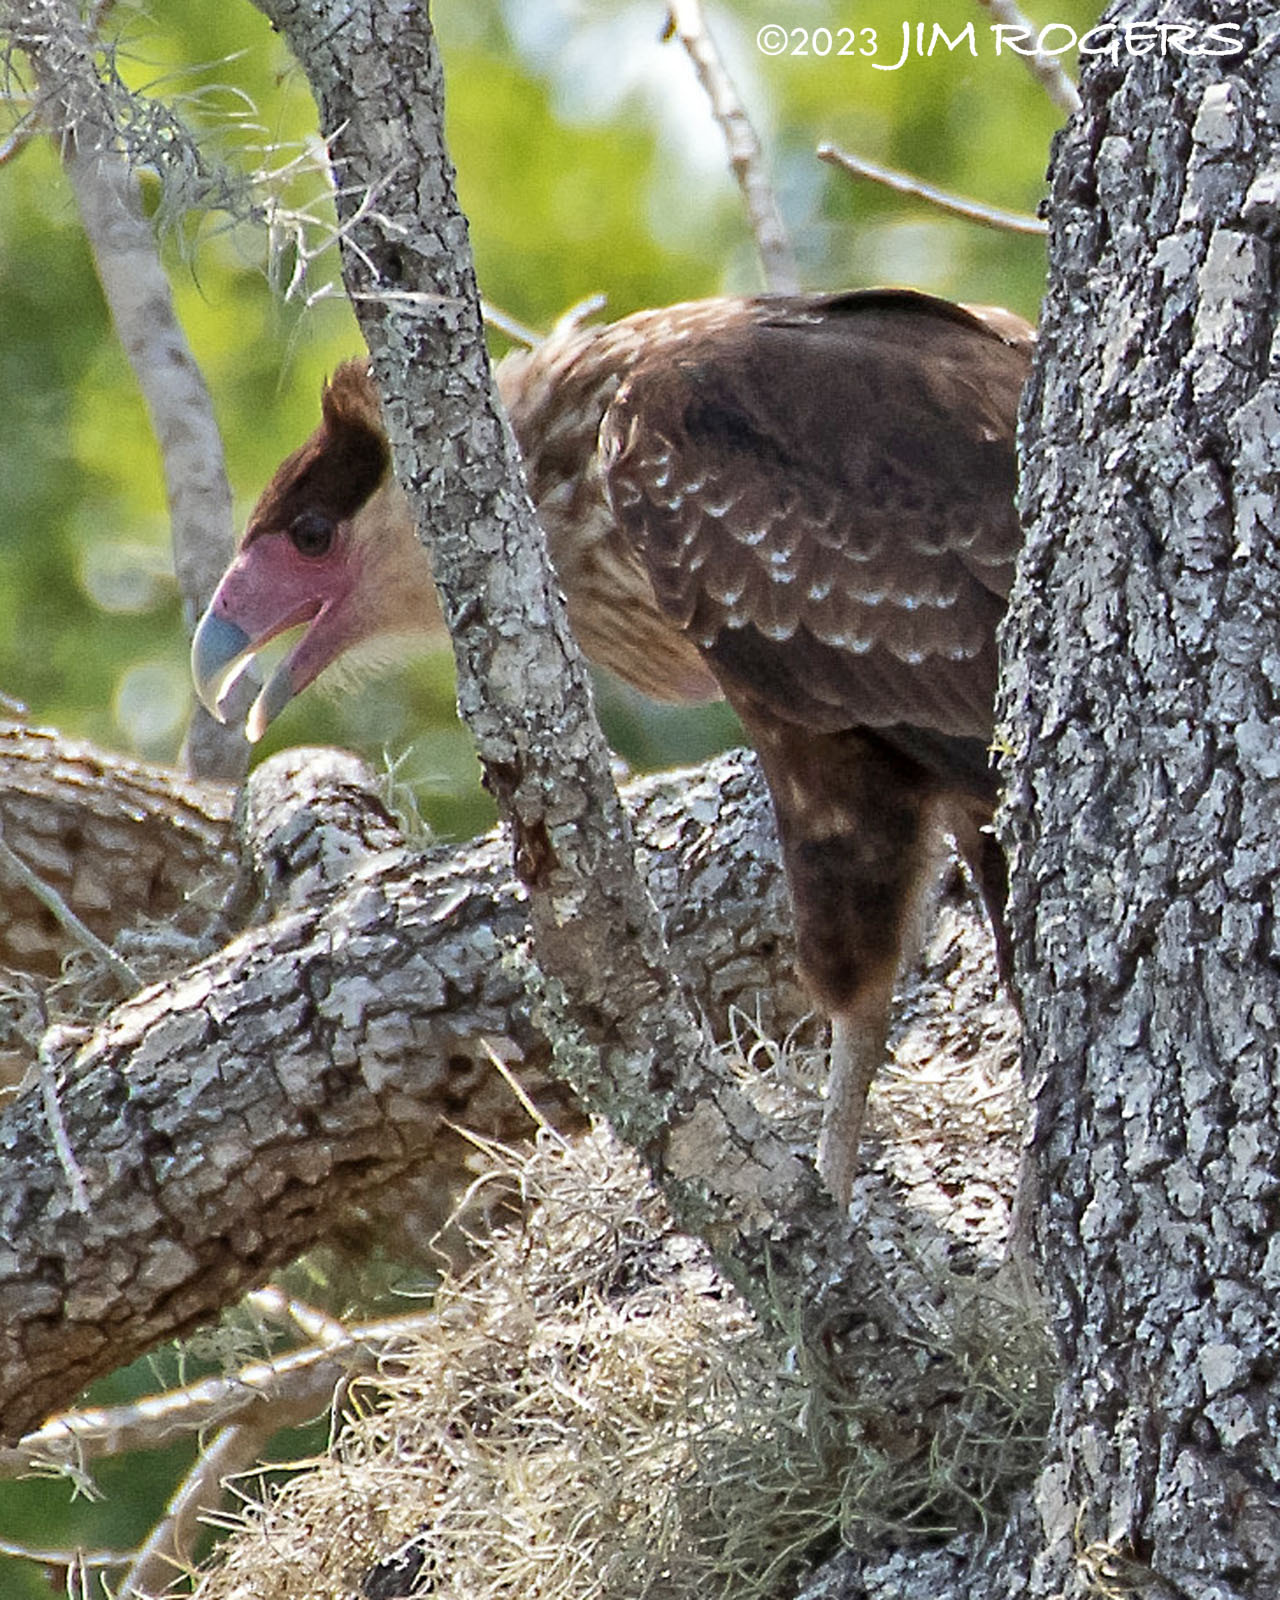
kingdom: Animalia
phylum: Chordata
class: Aves
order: Falconiformes
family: Falconidae
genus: Caracara
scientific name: Caracara plancus
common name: Southern caracara
